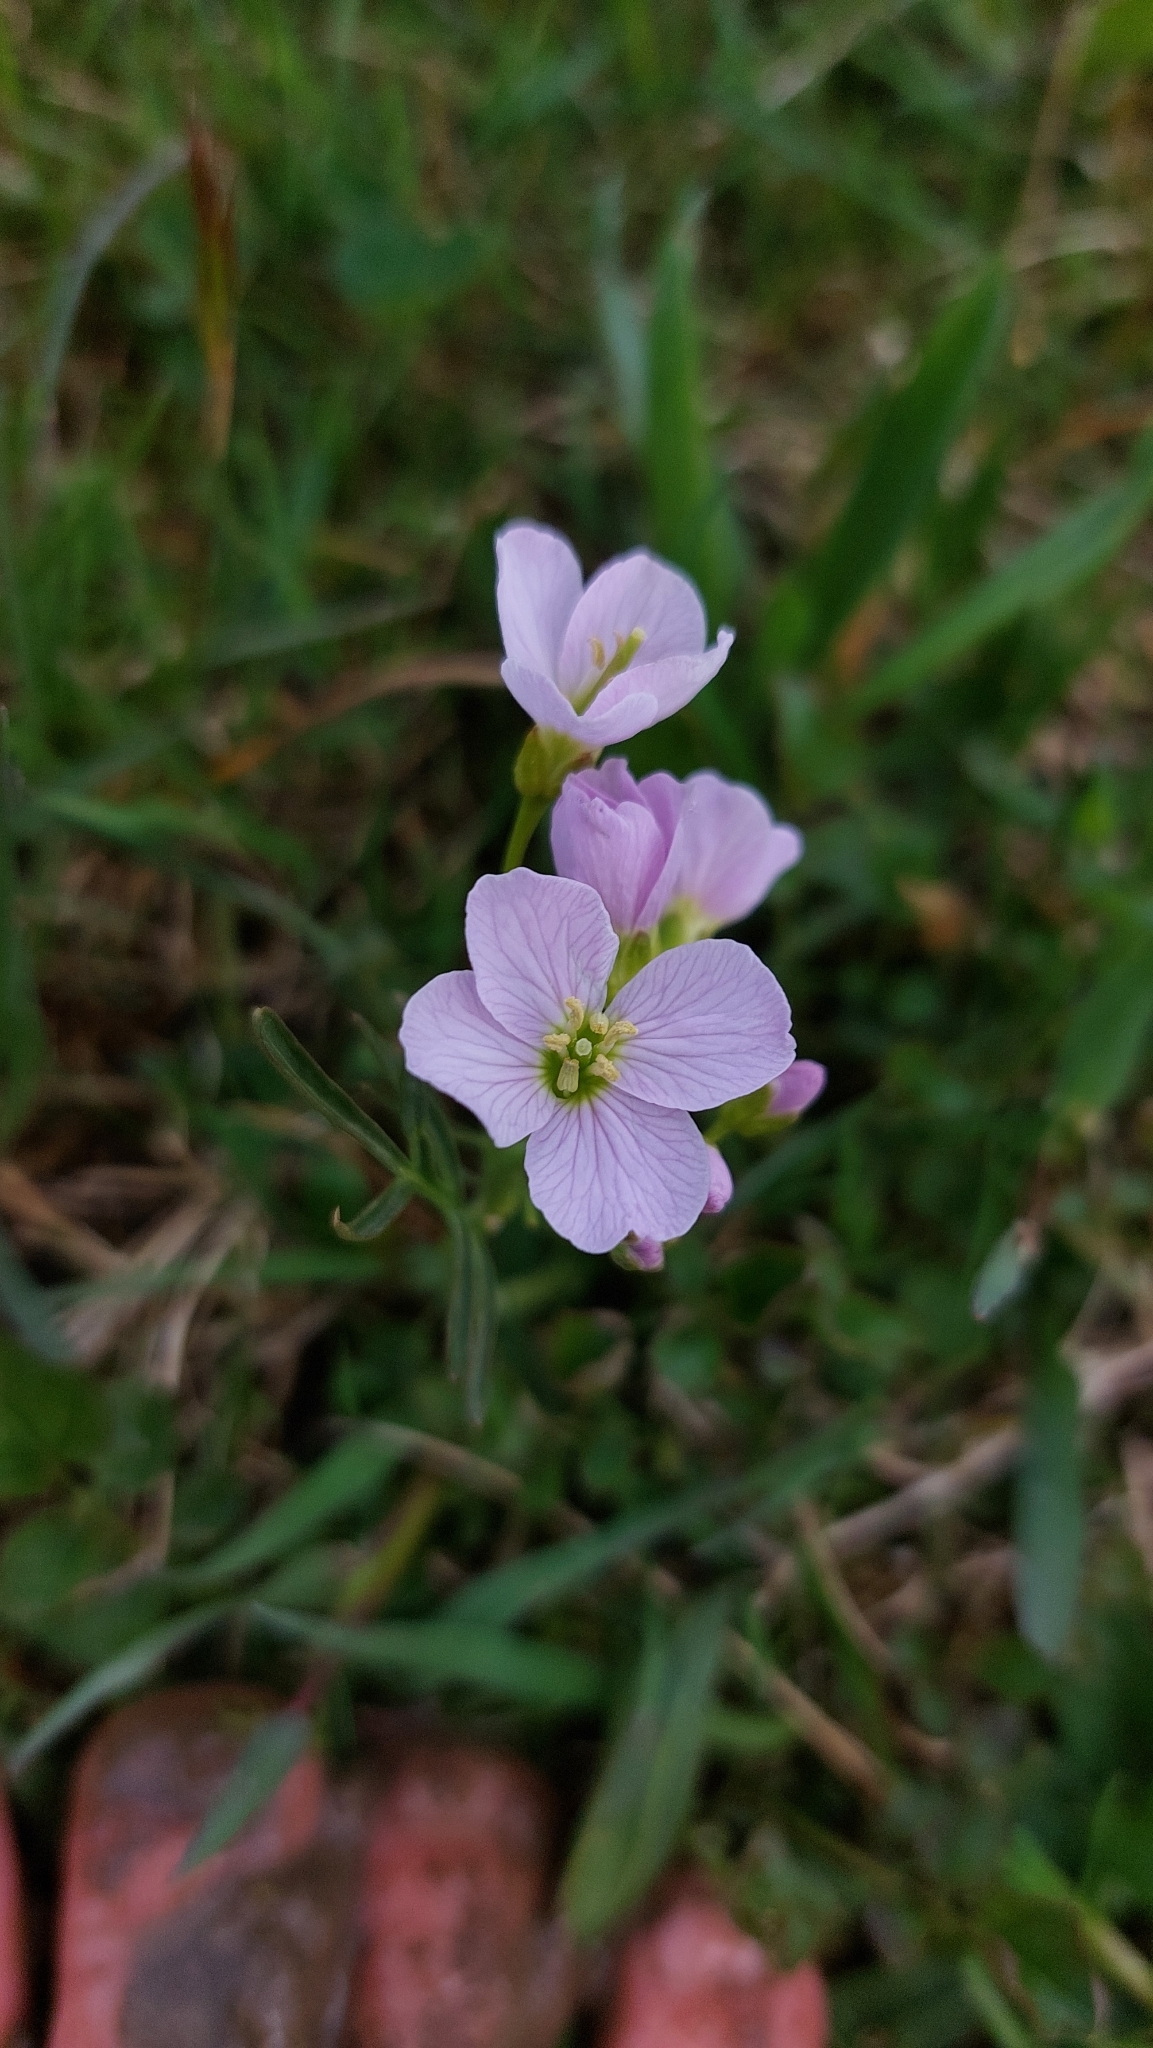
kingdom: Plantae
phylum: Tracheophyta
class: Magnoliopsida
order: Brassicales
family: Brassicaceae
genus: Cardamine
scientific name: Cardamine pratensis
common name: Cuckoo flower
